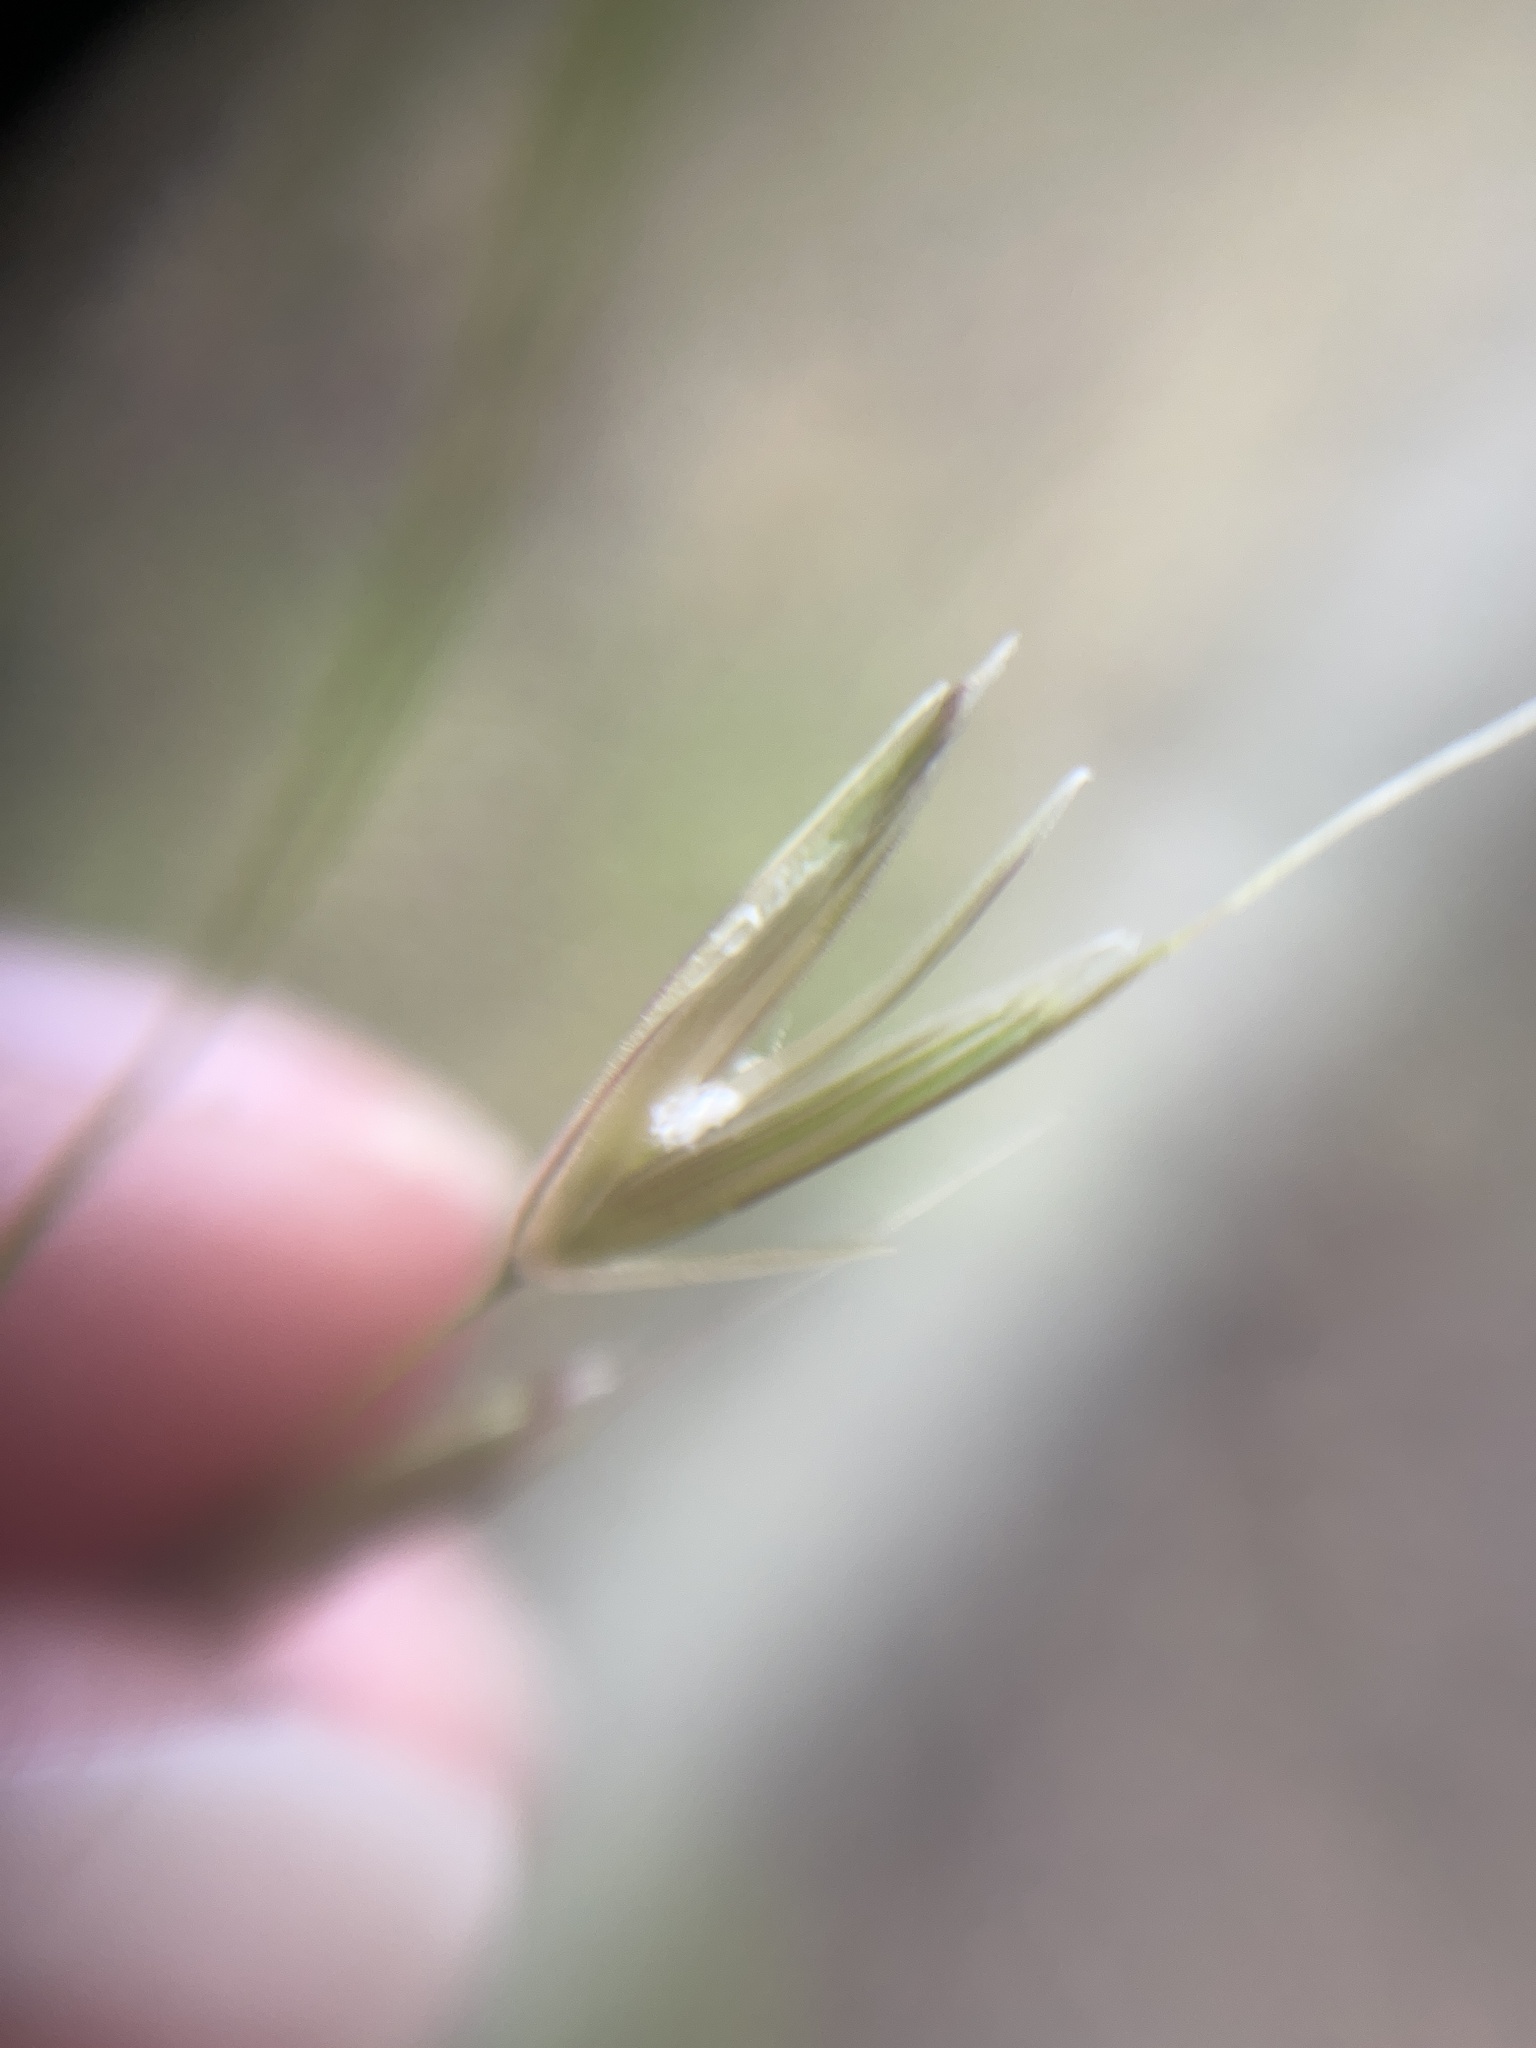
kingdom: Plantae
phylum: Tracheophyta
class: Liliopsida
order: Poales
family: Poaceae
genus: Arrhenatherum
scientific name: Arrhenatherum elatius
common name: Tall oatgrass
